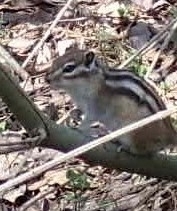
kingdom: Animalia
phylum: Chordata
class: Mammalia
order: Rodentia
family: Sciuridae
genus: Tamias
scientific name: Tamias sibiricus
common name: Siberian chipmunk
